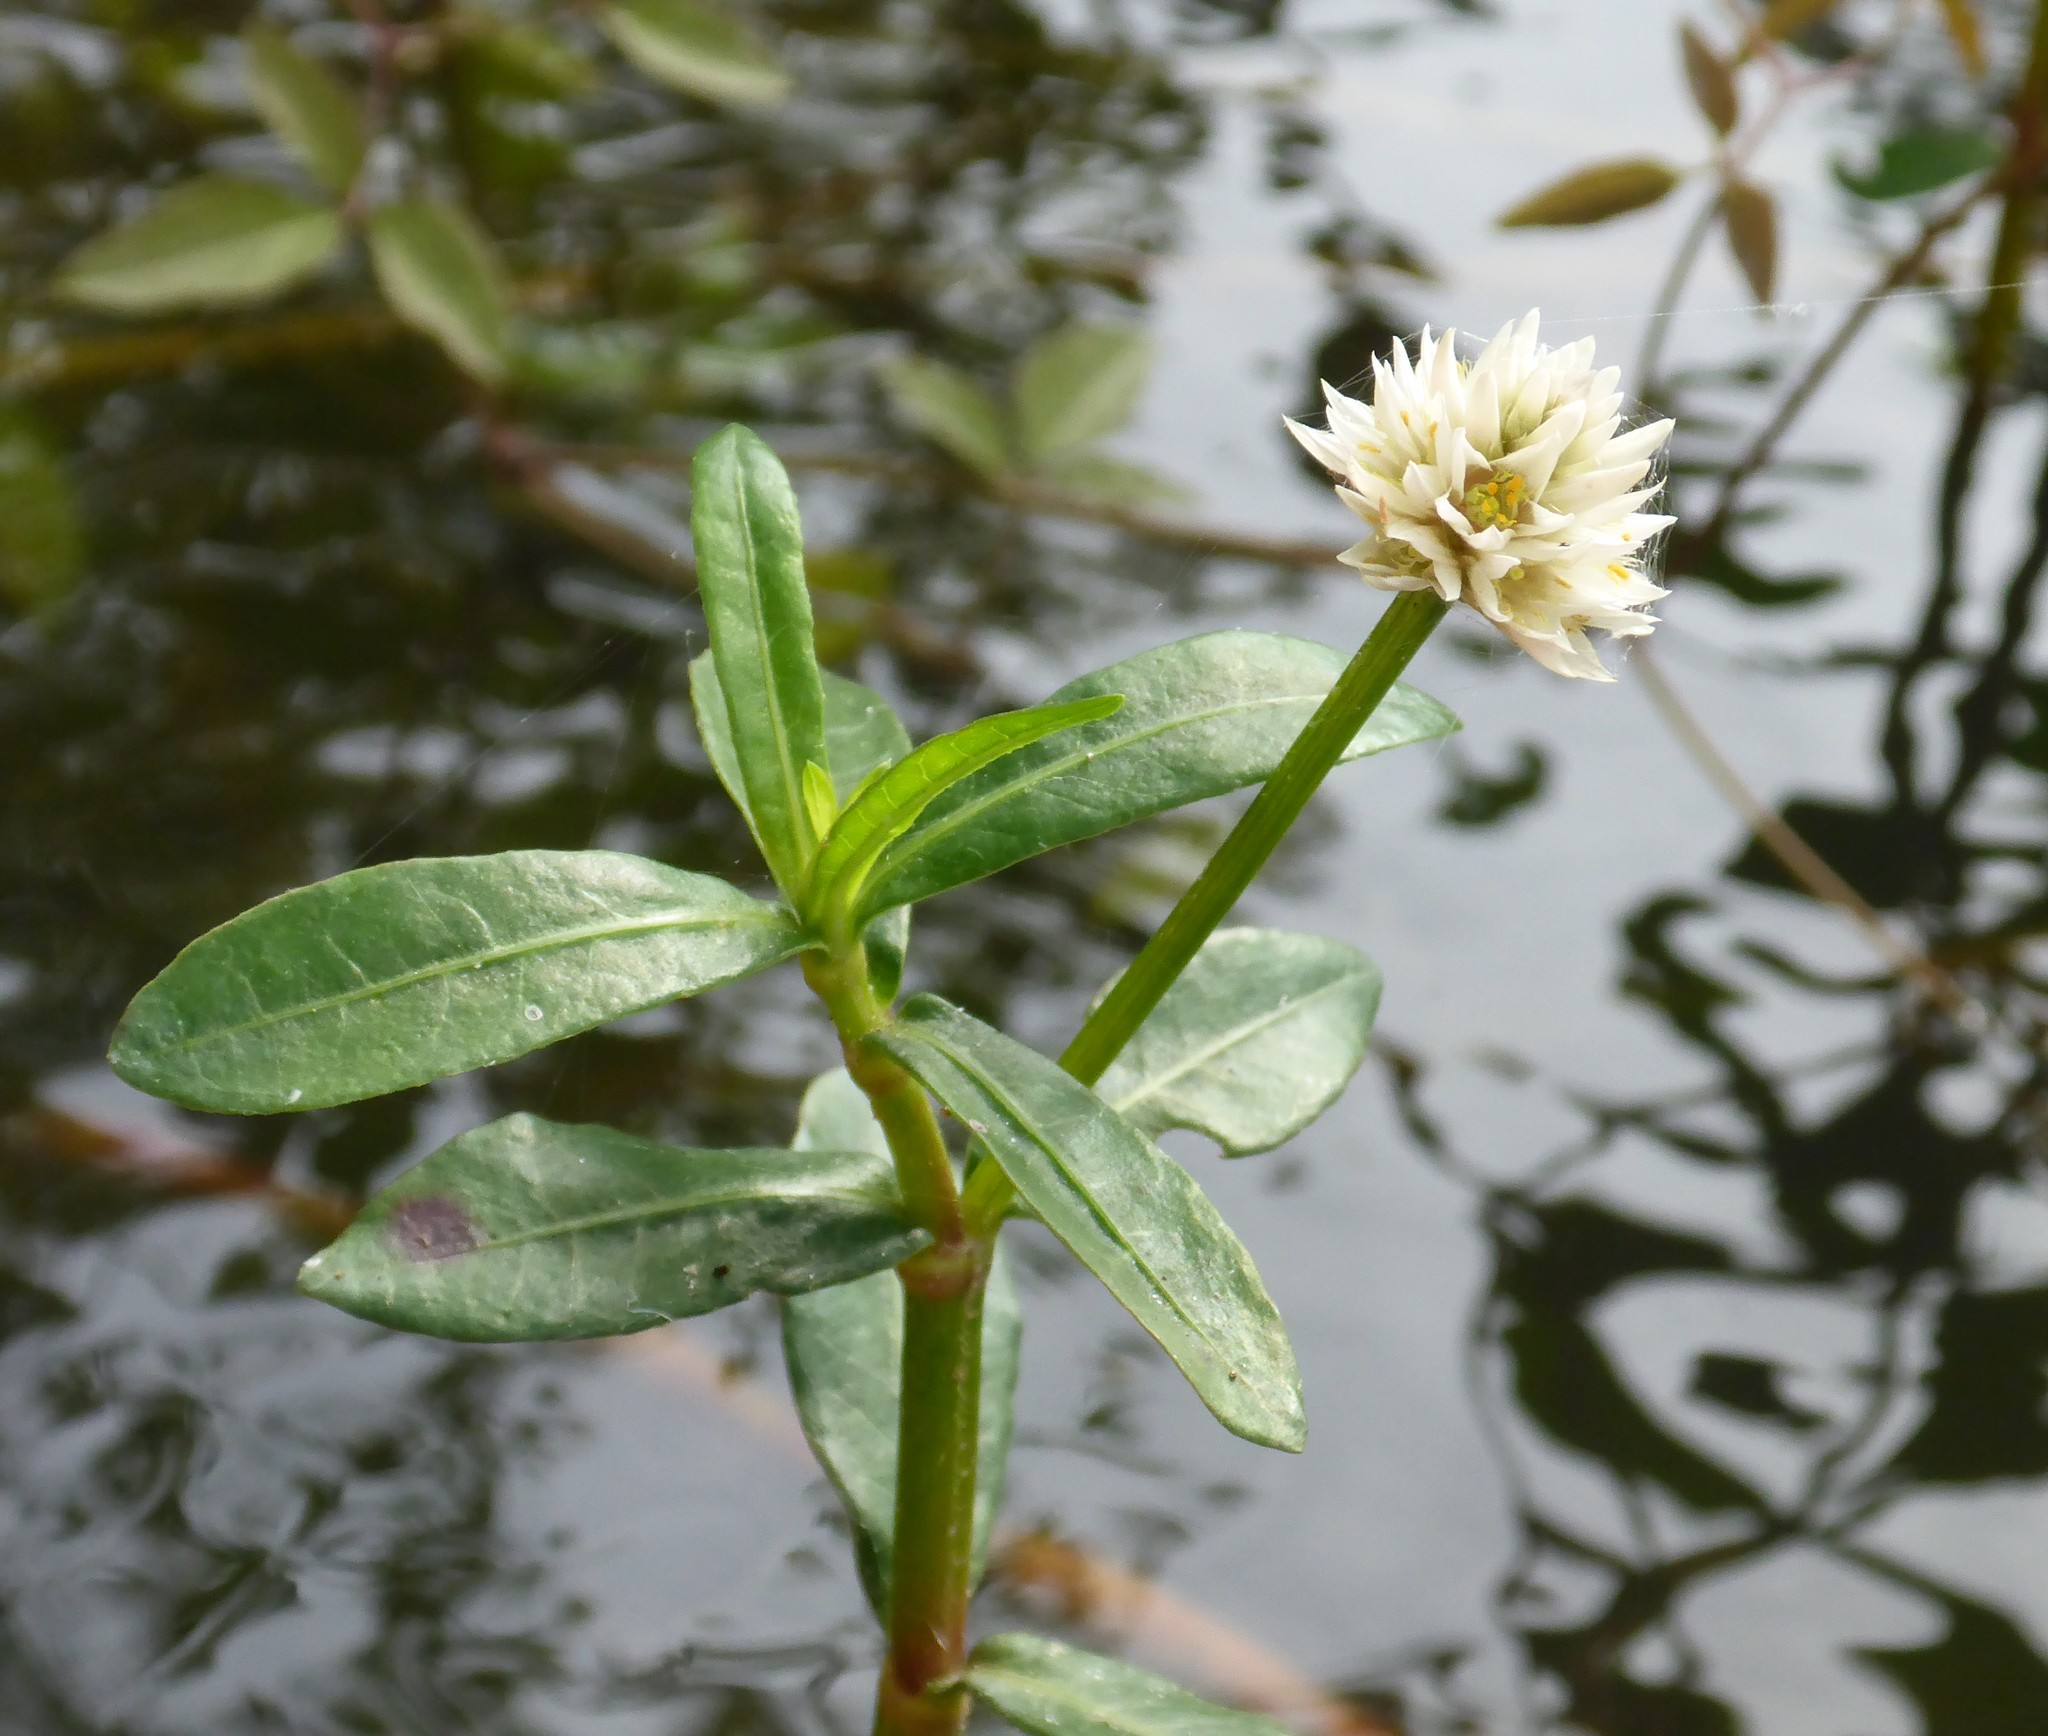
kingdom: Plantae
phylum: Tracheophyta
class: Magnoliopsida
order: Caryophyllales
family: Amaranthaceae
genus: Alternanthera
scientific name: Alternanthera philoxeroides
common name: Alligatorweed
